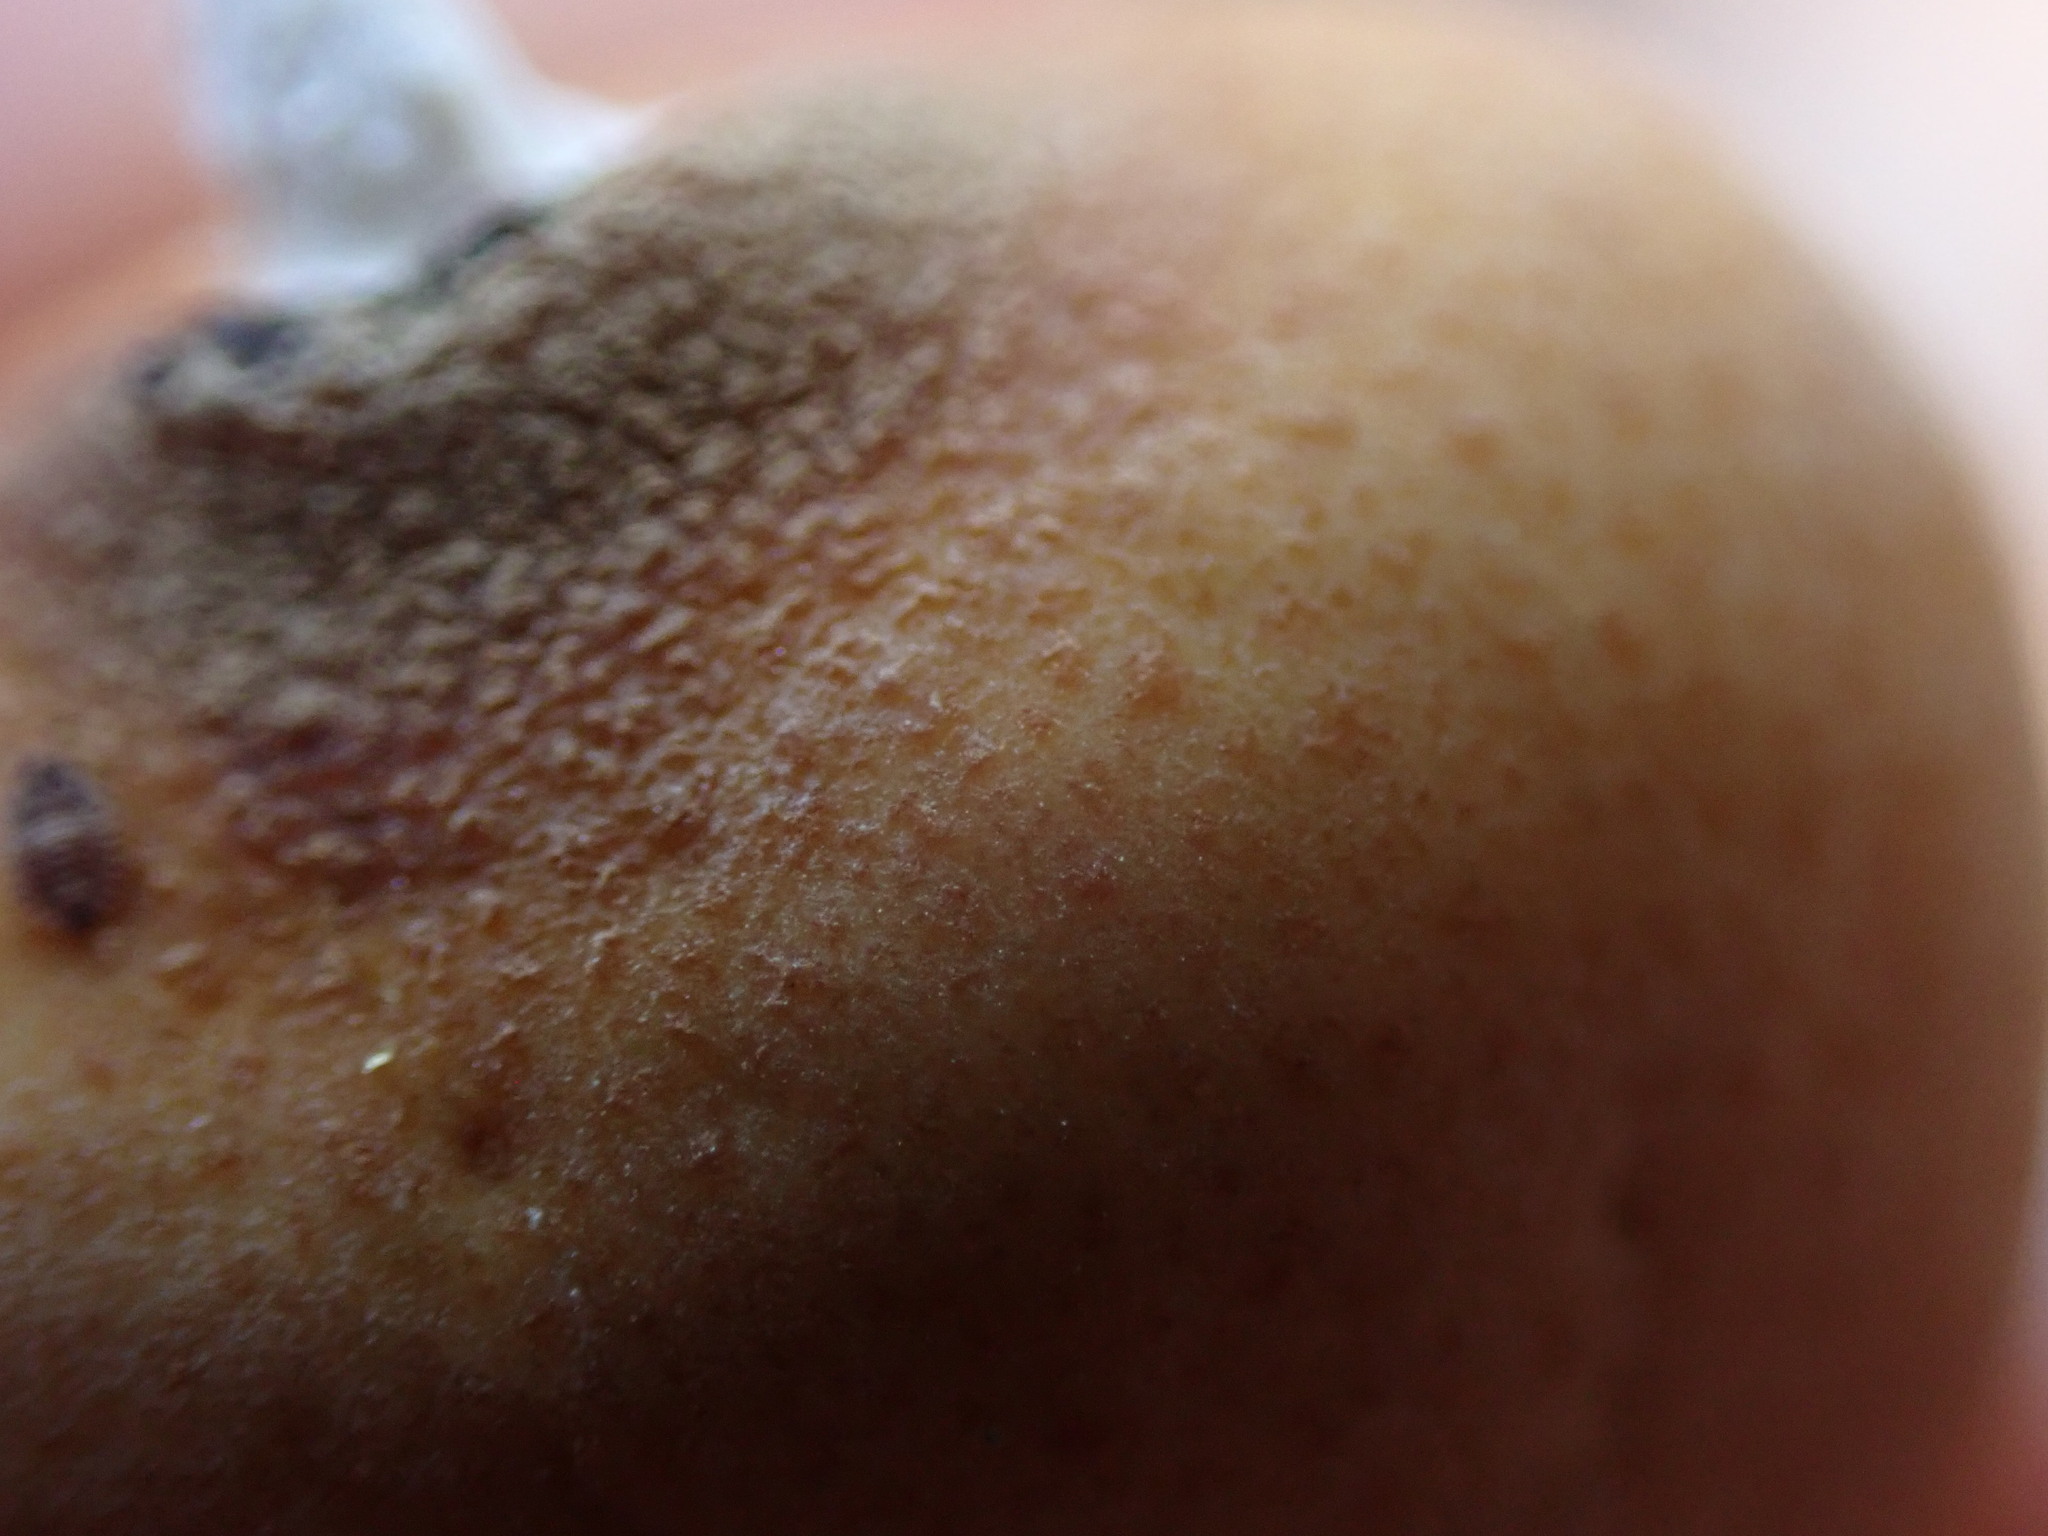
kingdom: Fungi
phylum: Basidiomycota
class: Agaricomycetes
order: Polyporales
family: Polyporaceae
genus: Cryptoporus
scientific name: Cryptoporus volvatus
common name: Veiled polypore
